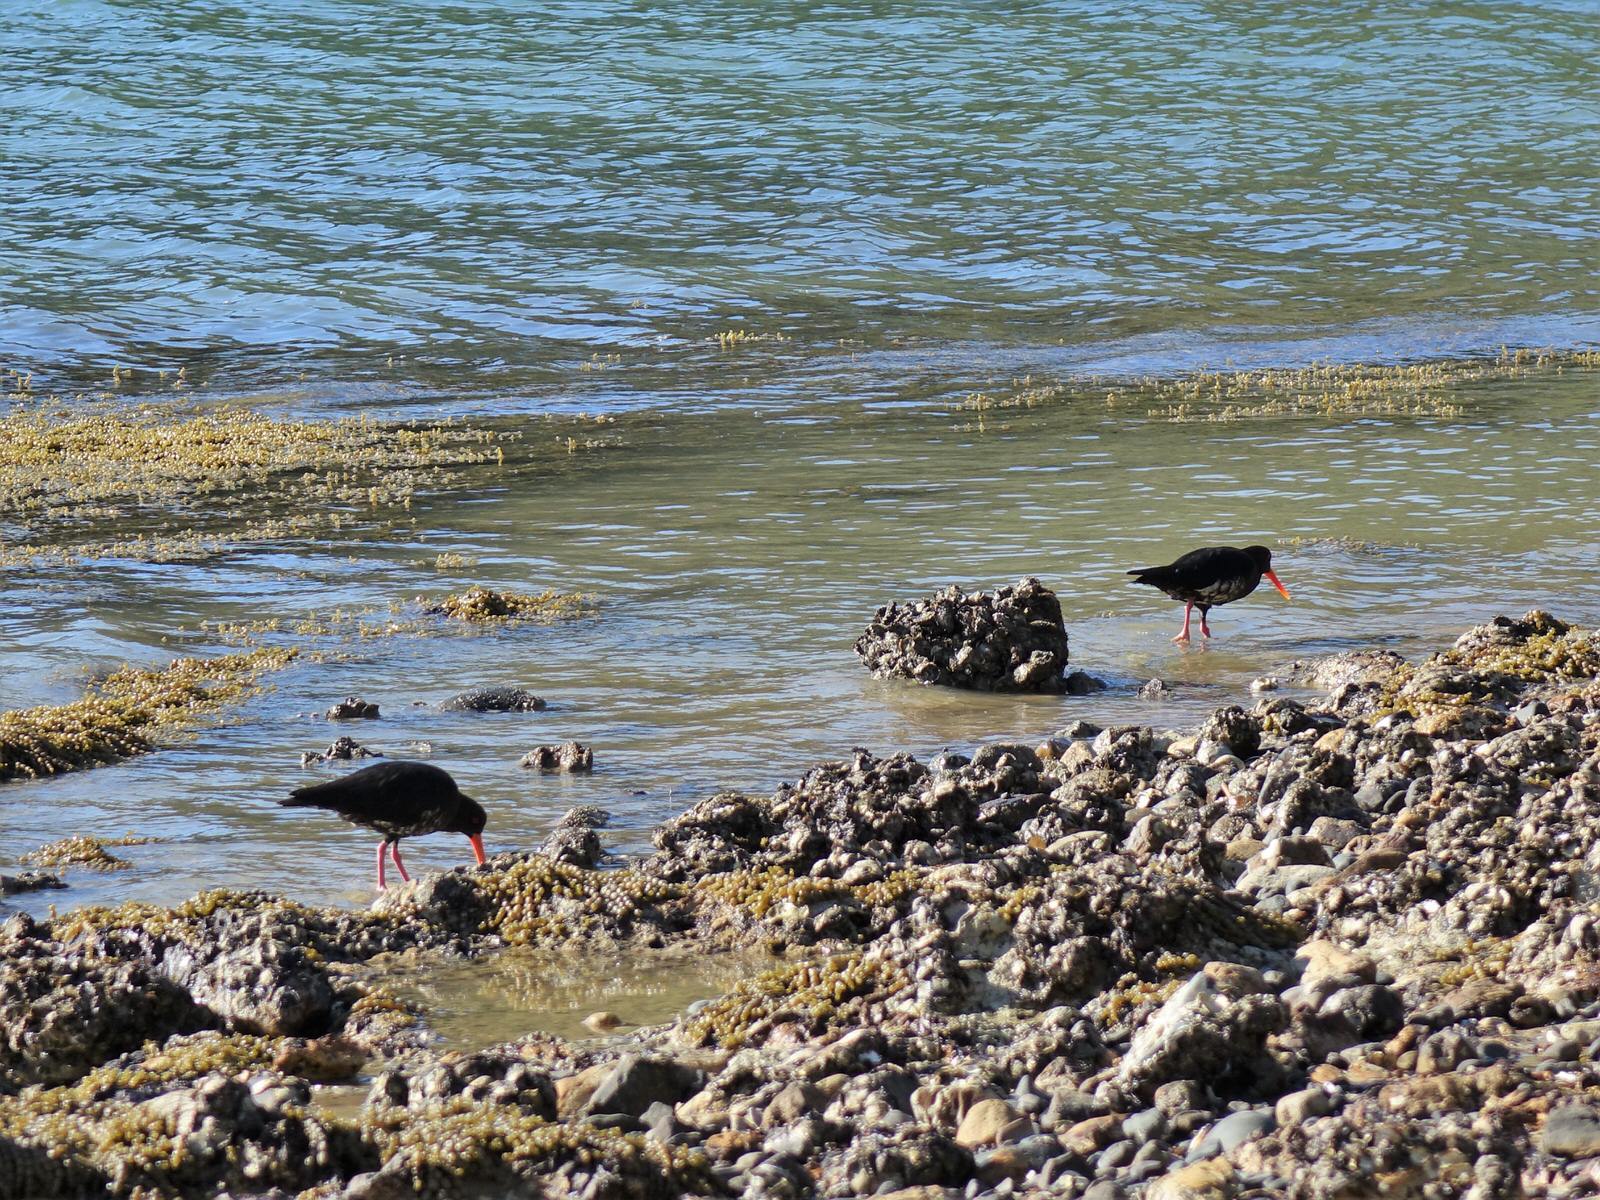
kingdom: Animalia
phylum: Chordata
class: Aves
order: Charadriiformes
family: Haematopodidae
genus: Haematopus
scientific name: Haematopus unicolor
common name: Variable oystercatcher
